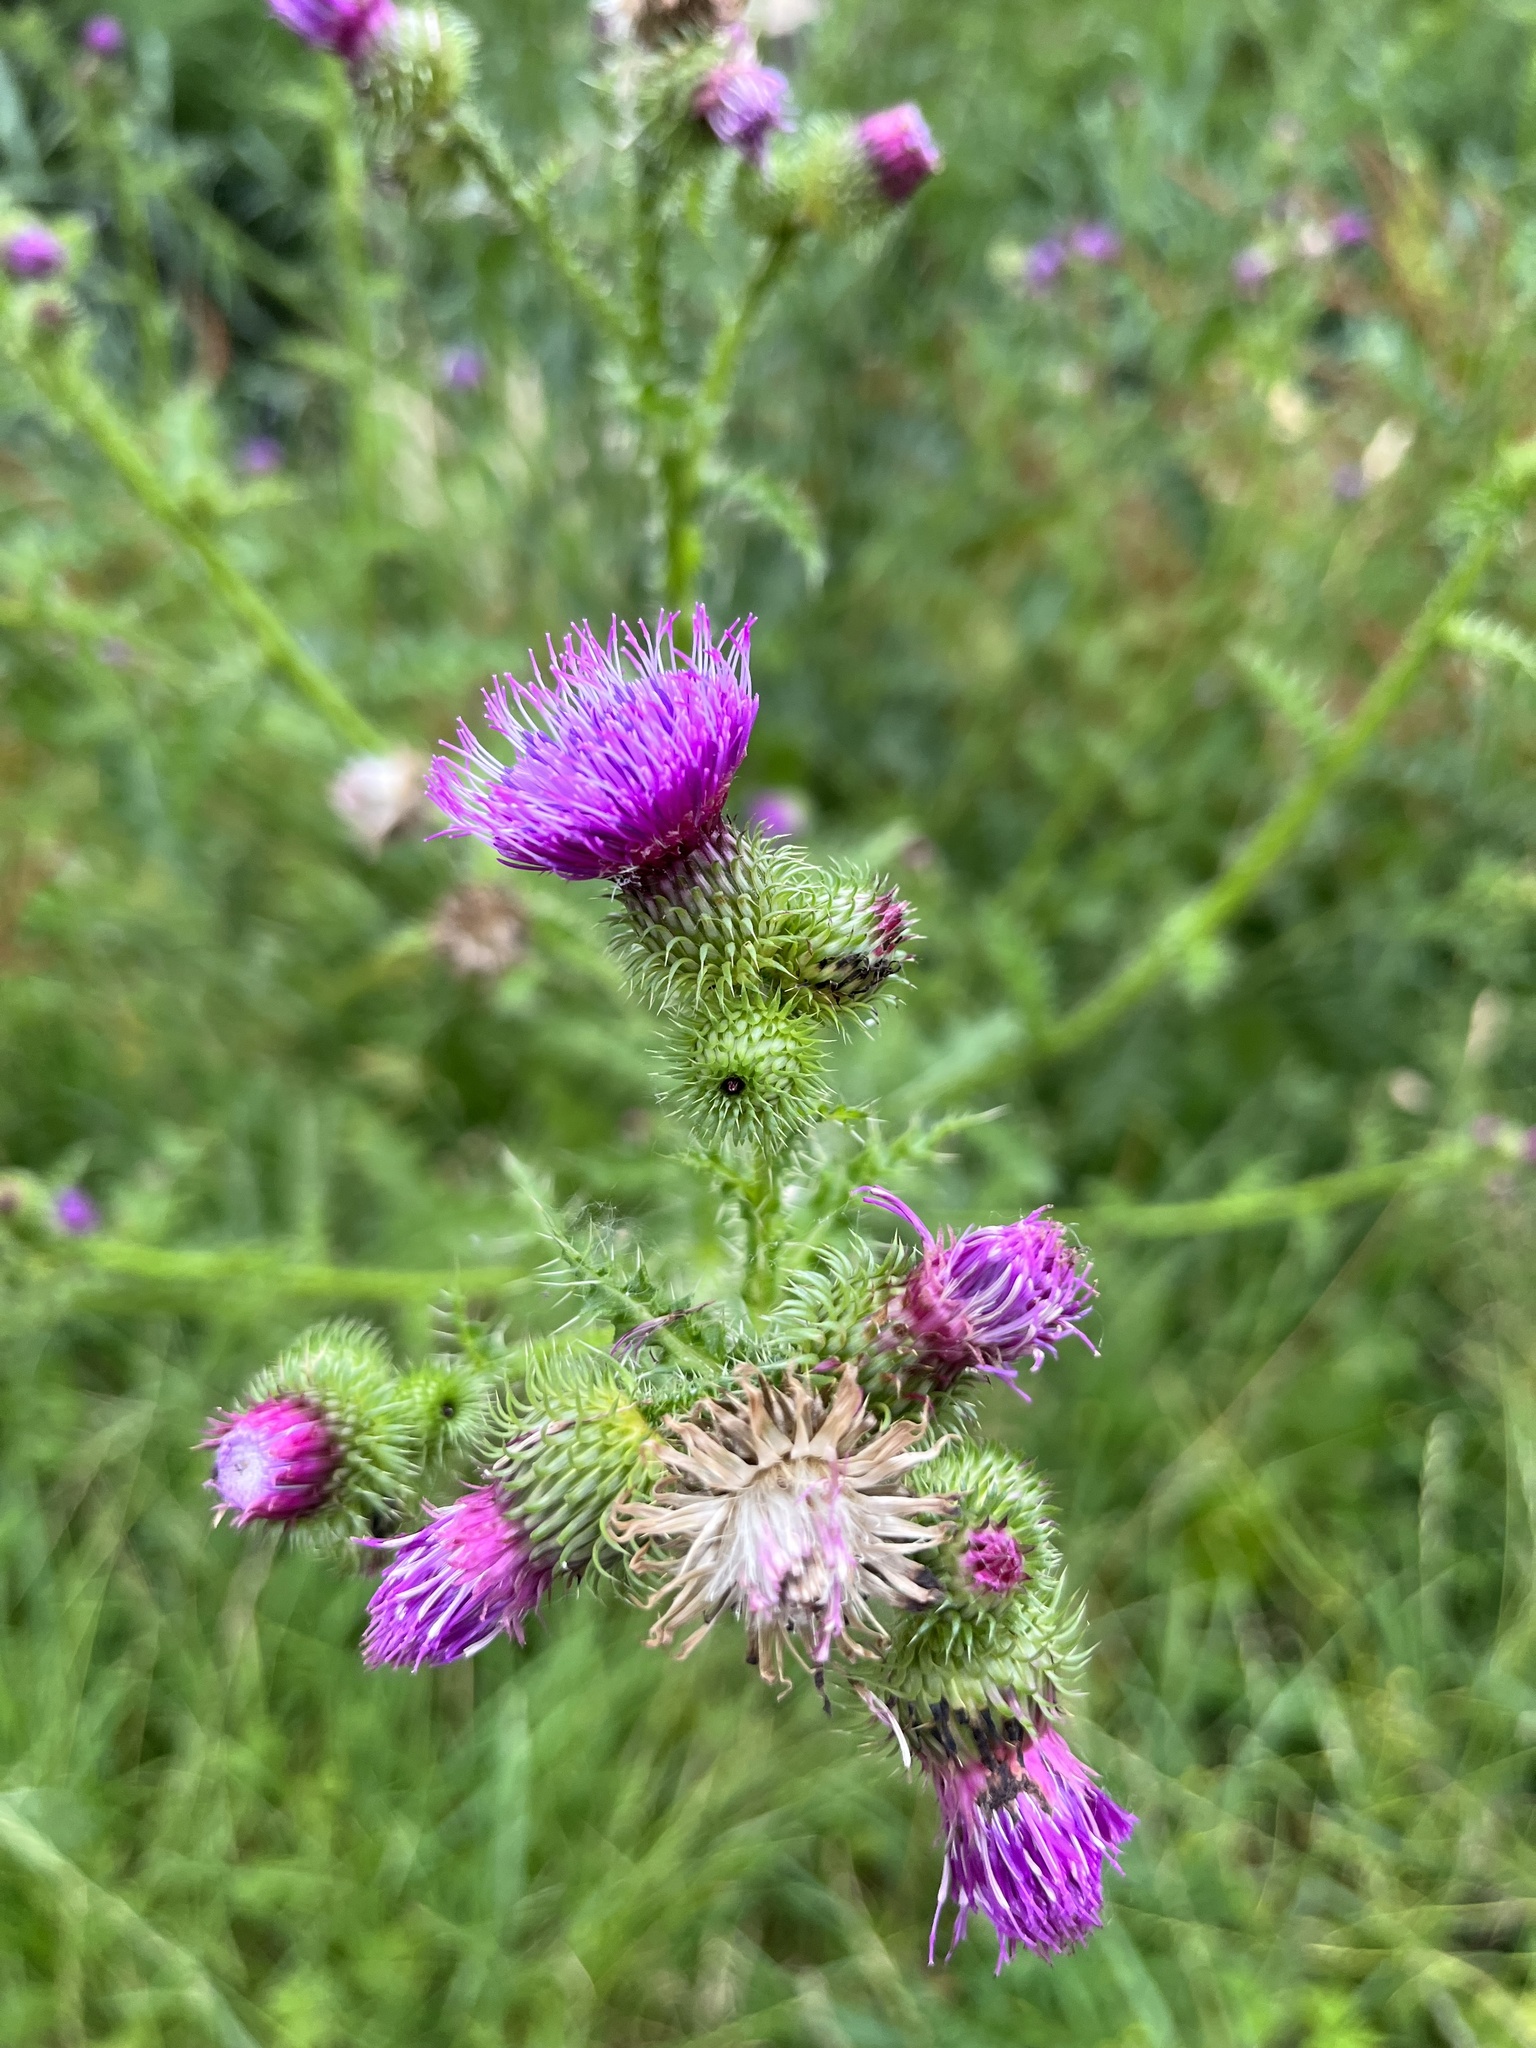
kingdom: Plantae
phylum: Tracheophyta
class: Magnoliopsida
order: Asterales
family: Asteraceae
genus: Carduus
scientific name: Carduus crispus
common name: Welted thistle
